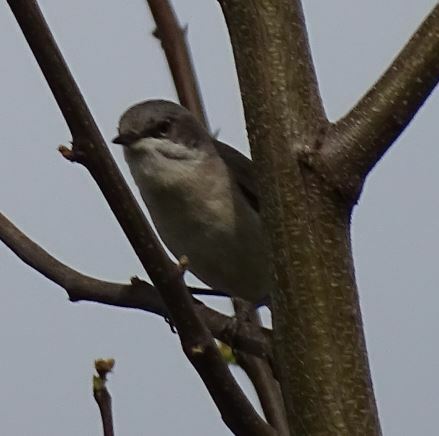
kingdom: Animalia
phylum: Chordata
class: Aves
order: Passeriformes
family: Sylviidae
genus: Sylvia
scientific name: Sylvia curruca
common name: Lesser whitethroat
